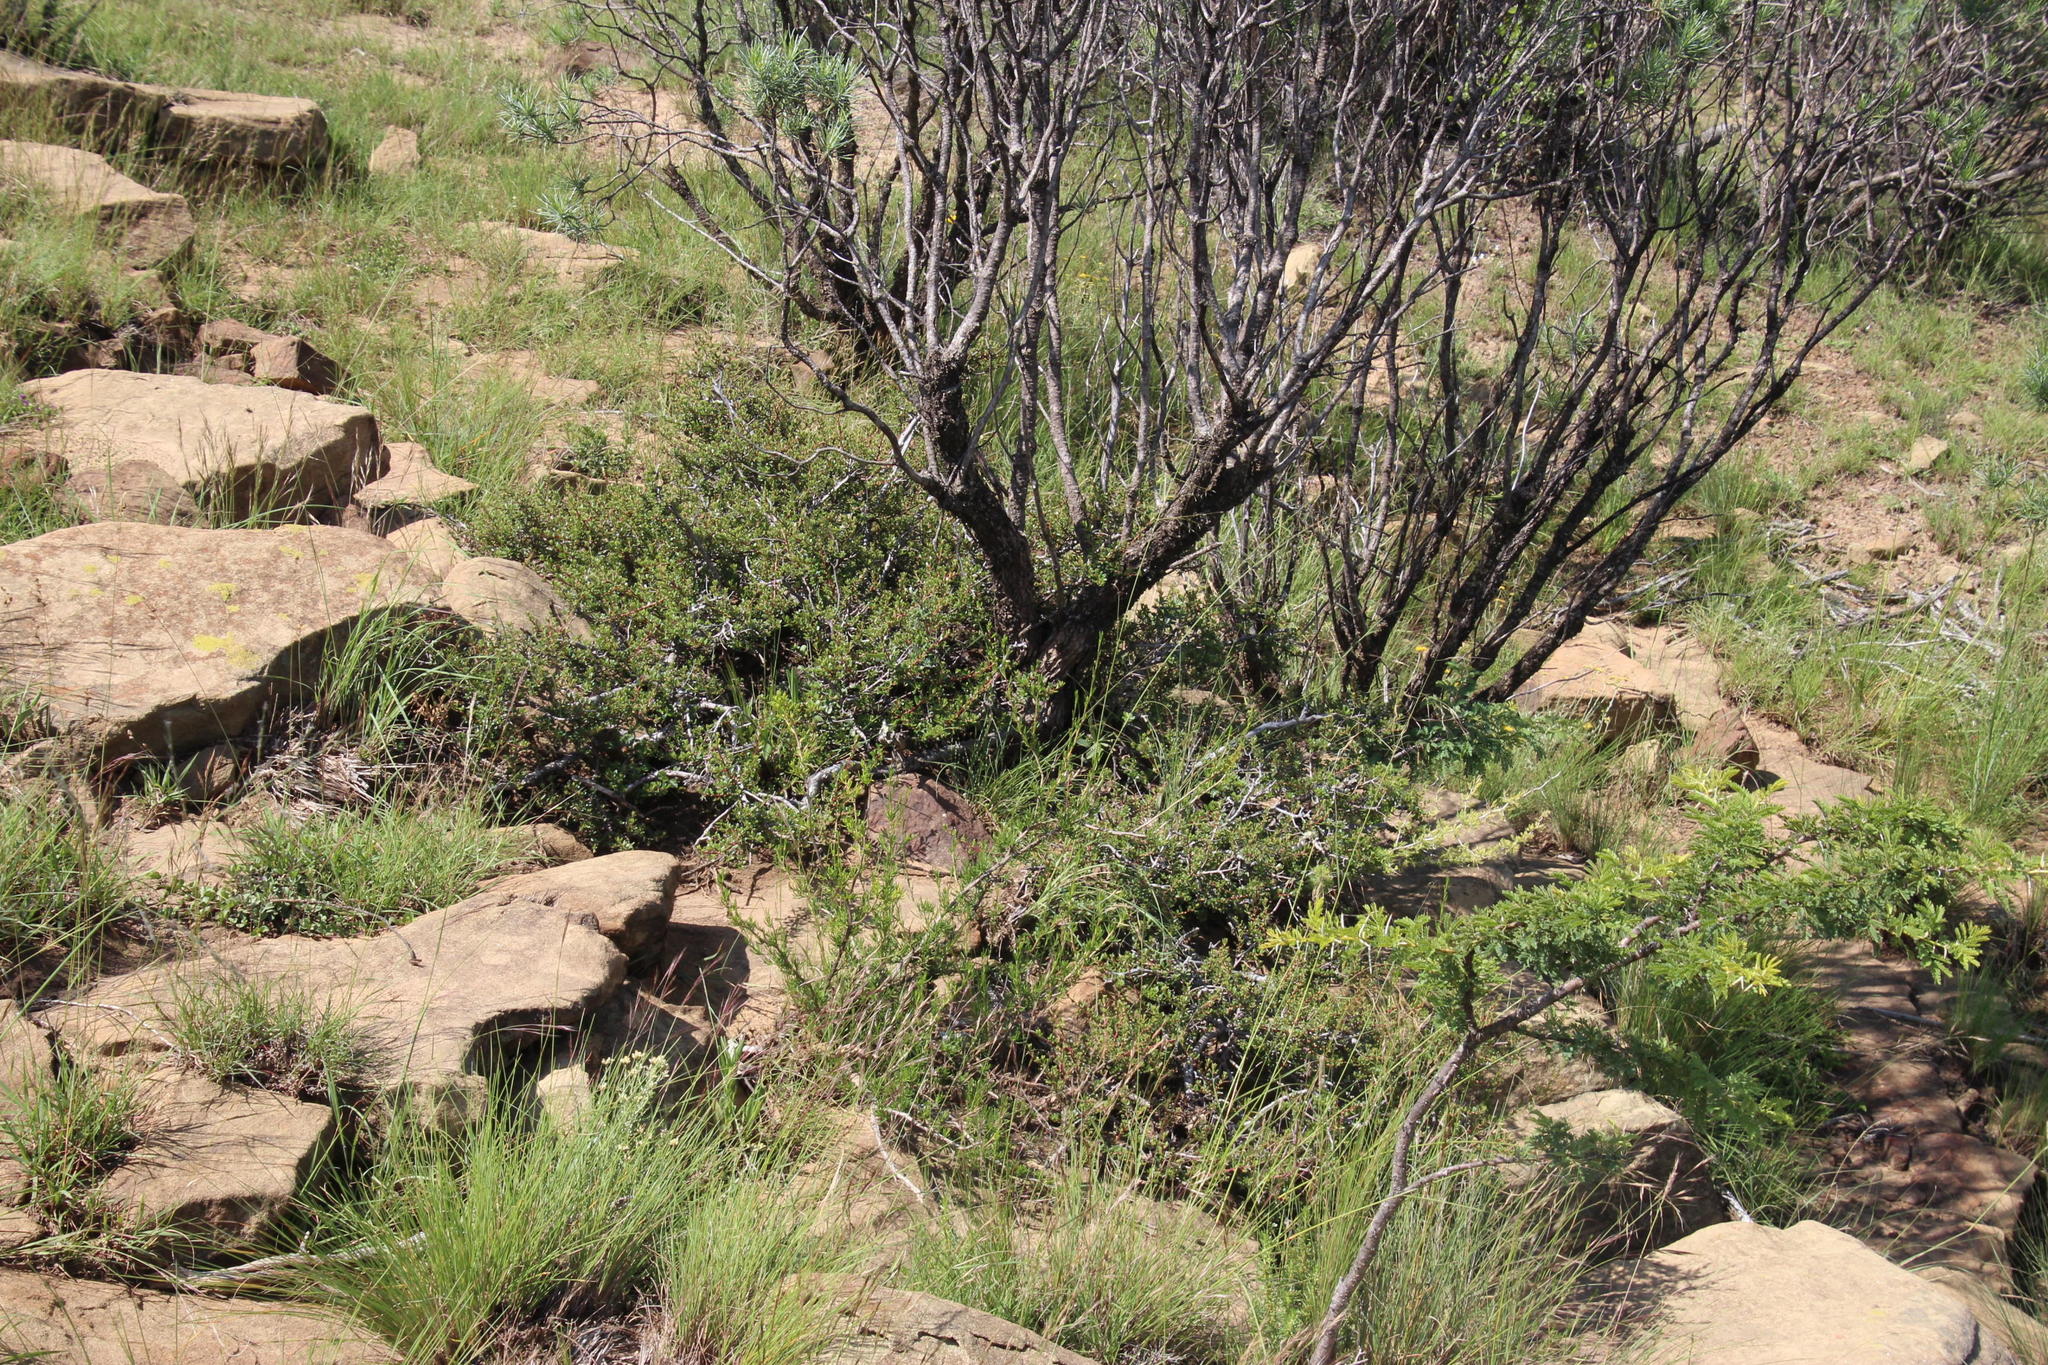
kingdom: Plantae
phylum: Tracheophyta
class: Magnoliopsida
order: Ericales
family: Ebenaceae
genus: Diospyros
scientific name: Diospyros pubescens
